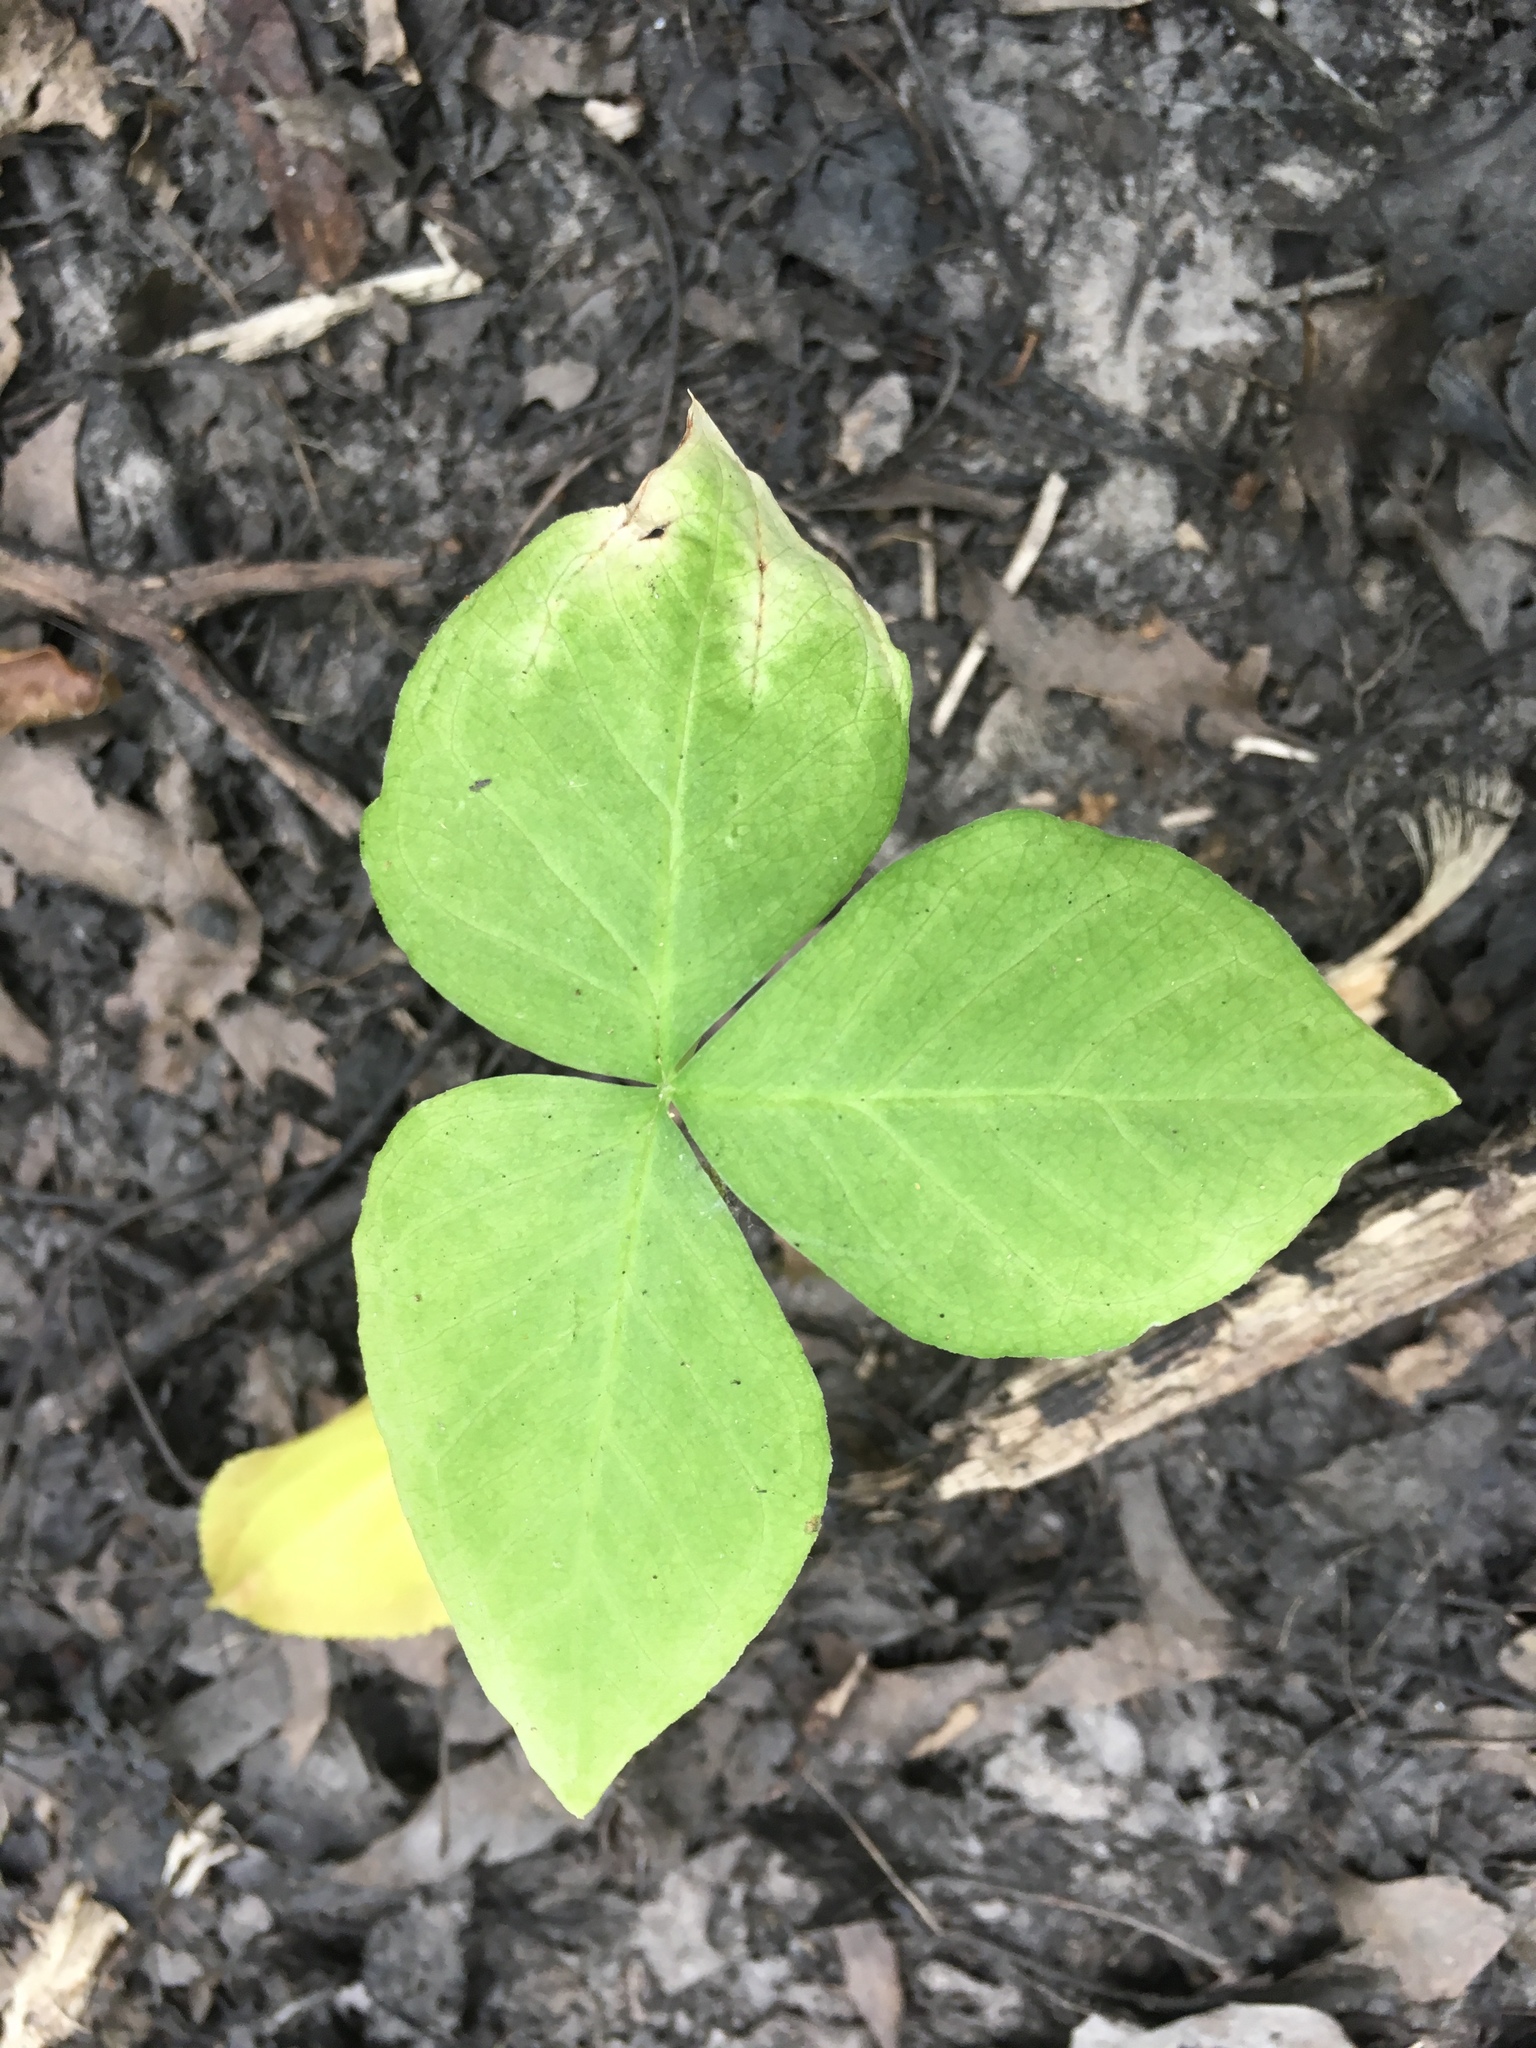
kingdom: Plantae
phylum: Tracheophyta
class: Liliopsida
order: Alismatales
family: Araceae
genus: Arisaema
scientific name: Arisaema triphyllum
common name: Jack-in-the-pulpit
